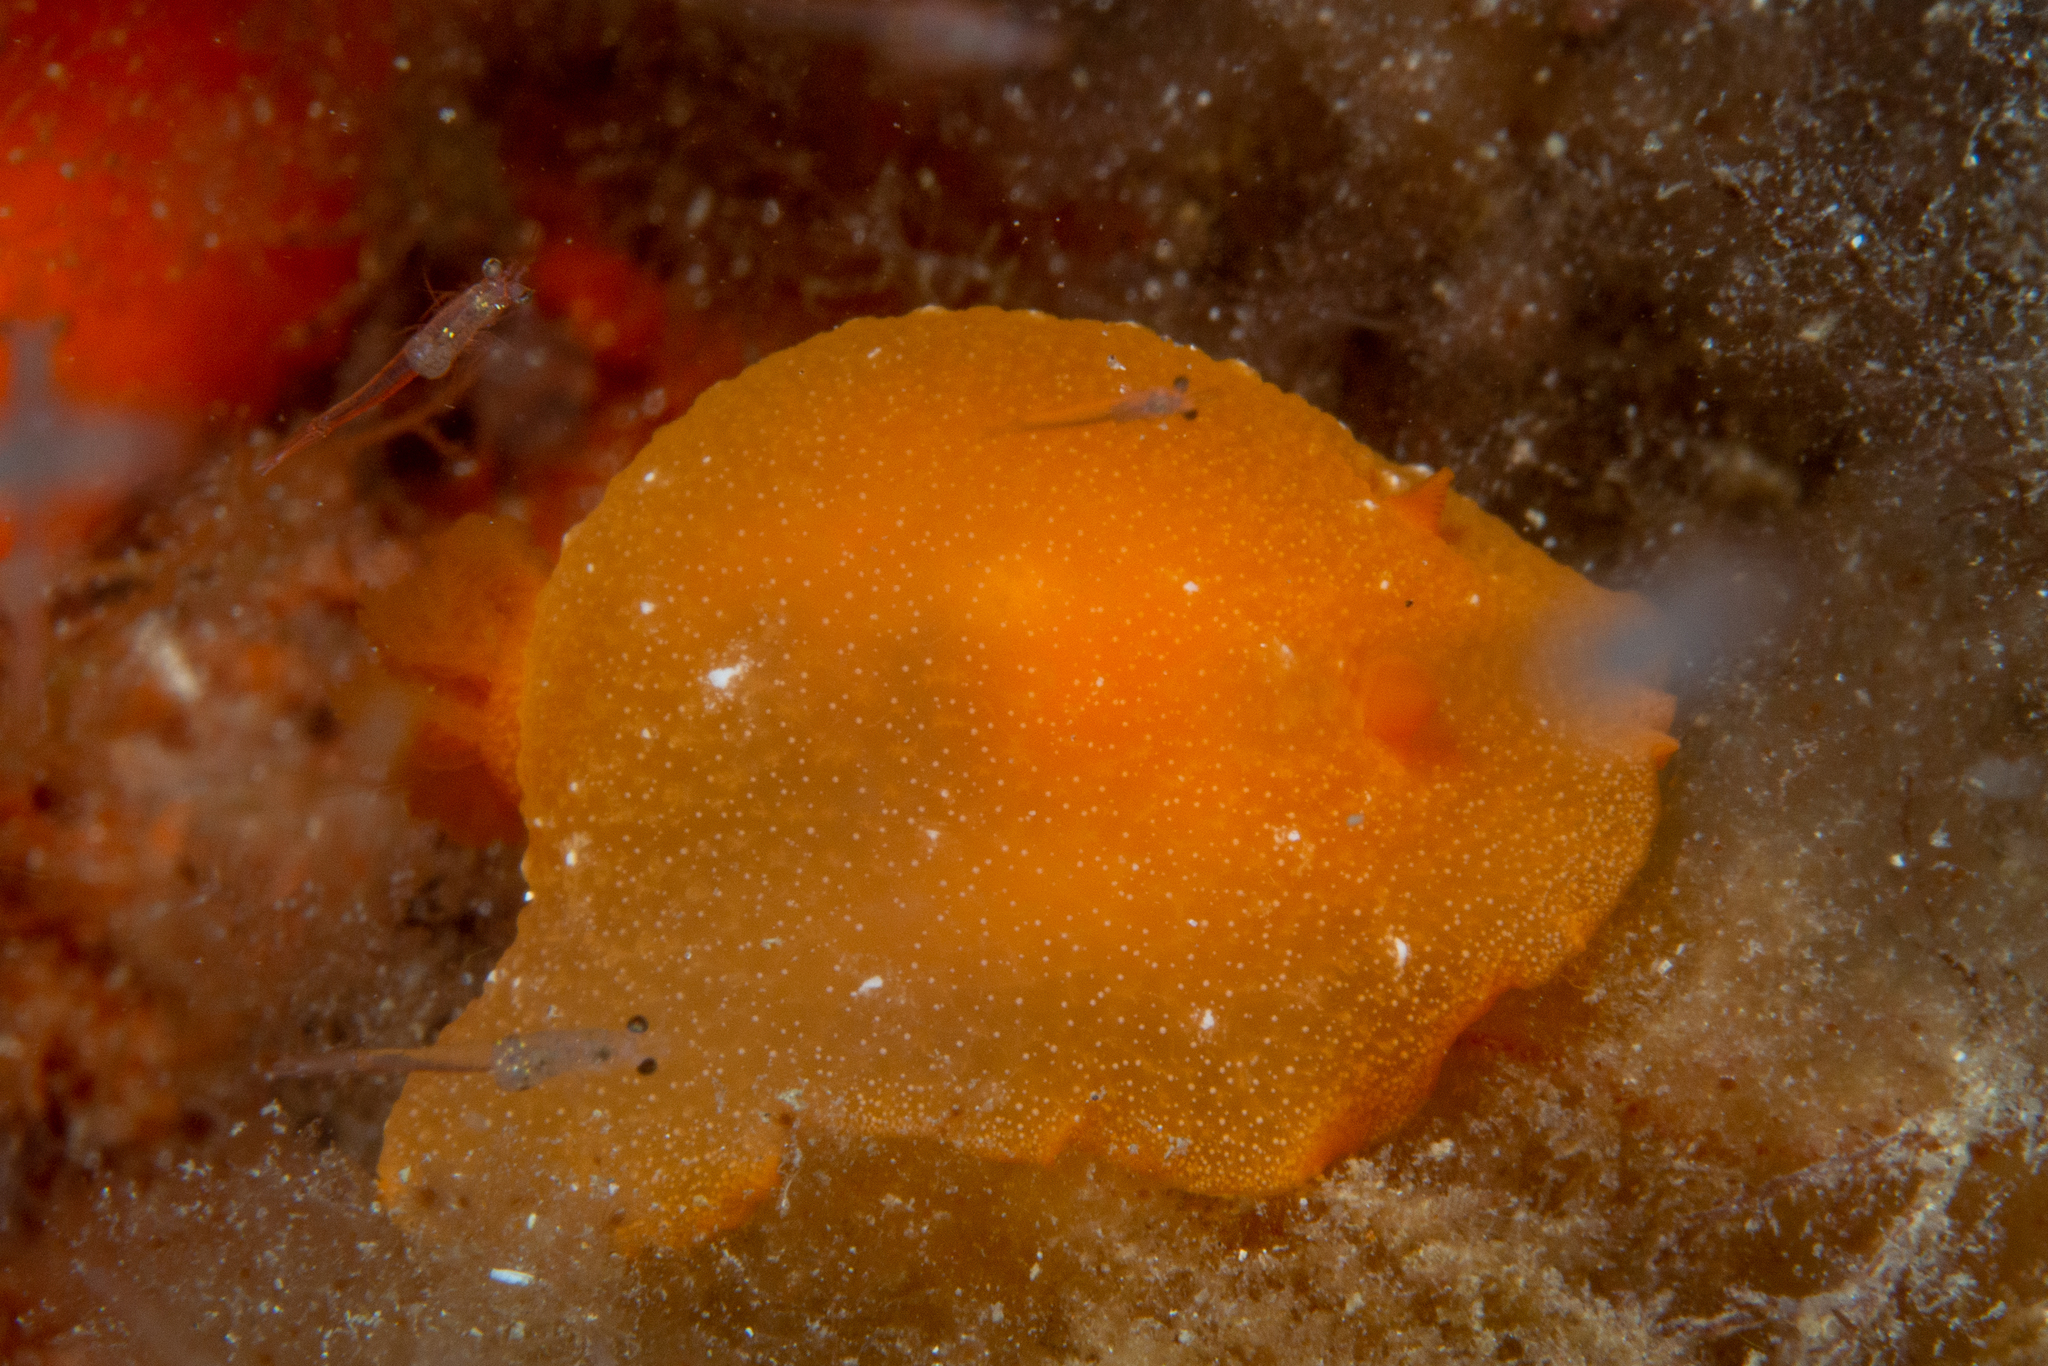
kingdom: Animalia
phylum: Mollusca
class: Gastropoda
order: Nudibranchia
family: Dendrodorididae
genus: Doriopsilla
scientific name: Doriopsilla aurea
